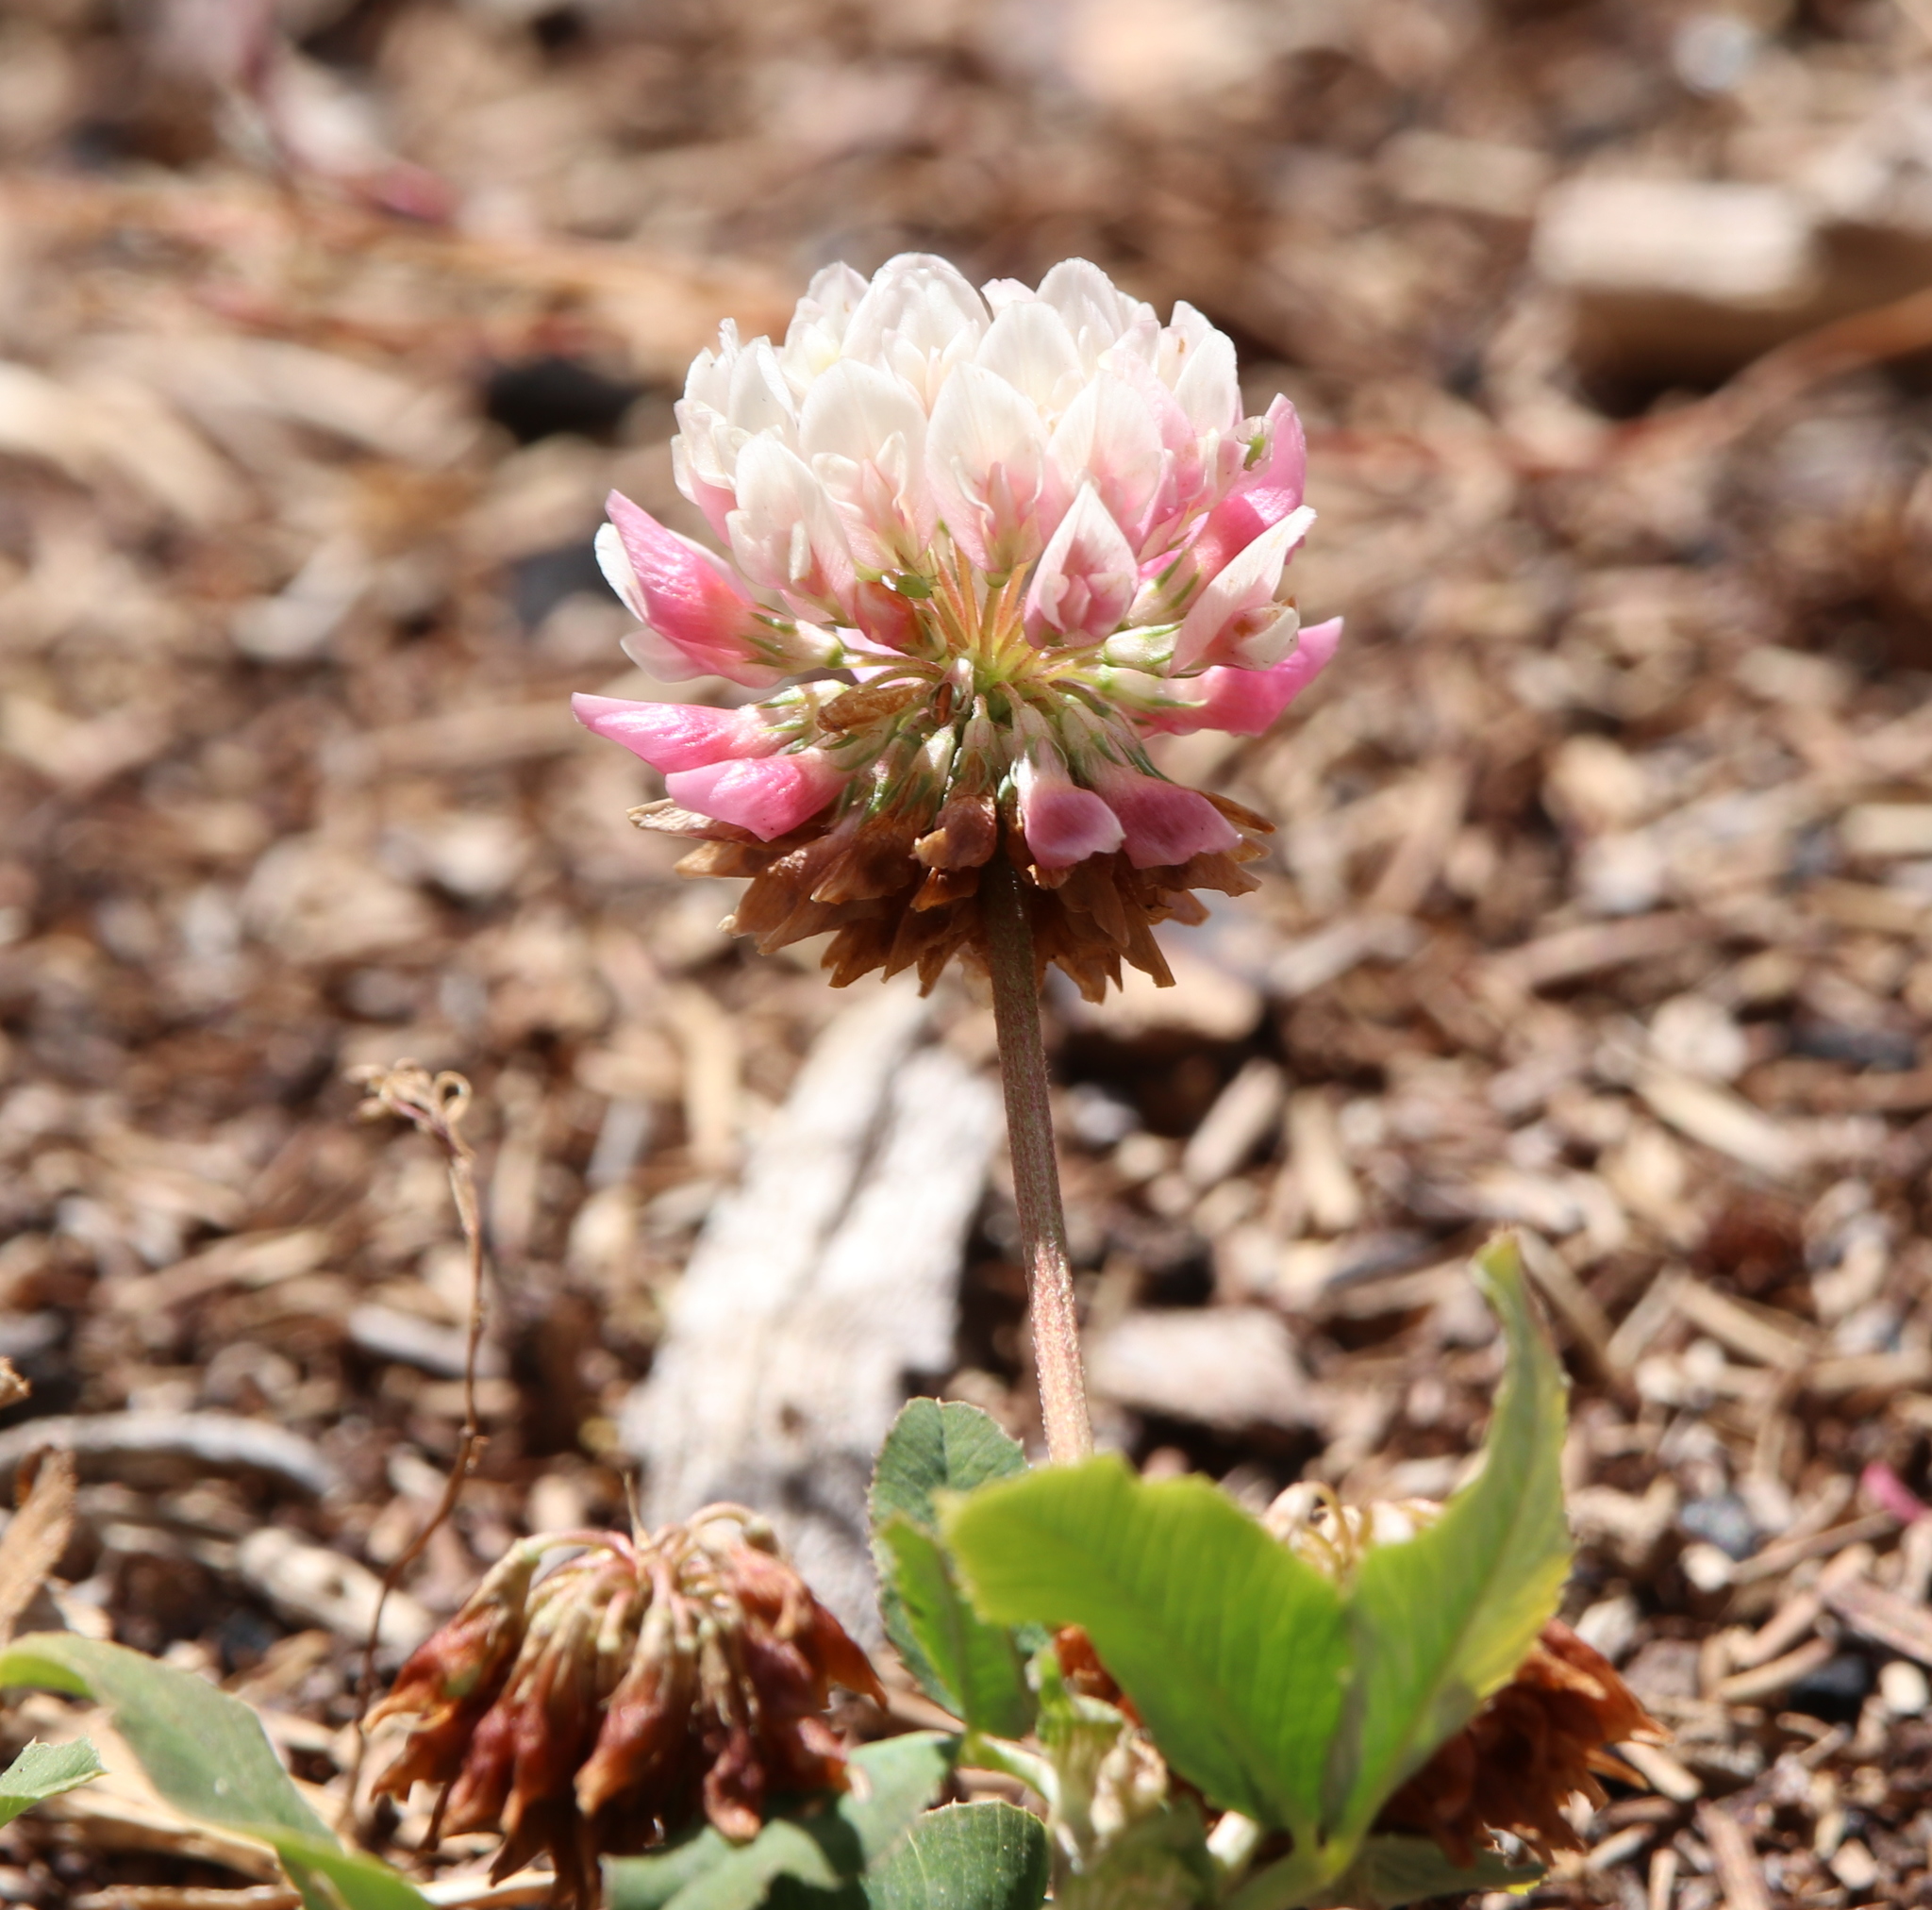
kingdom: Plantae
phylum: Tracheophyta
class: Magnoliopsida
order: Fabales
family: Fabaceae
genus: Trifolium
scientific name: Trifolium hybridum
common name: Alsike clover
